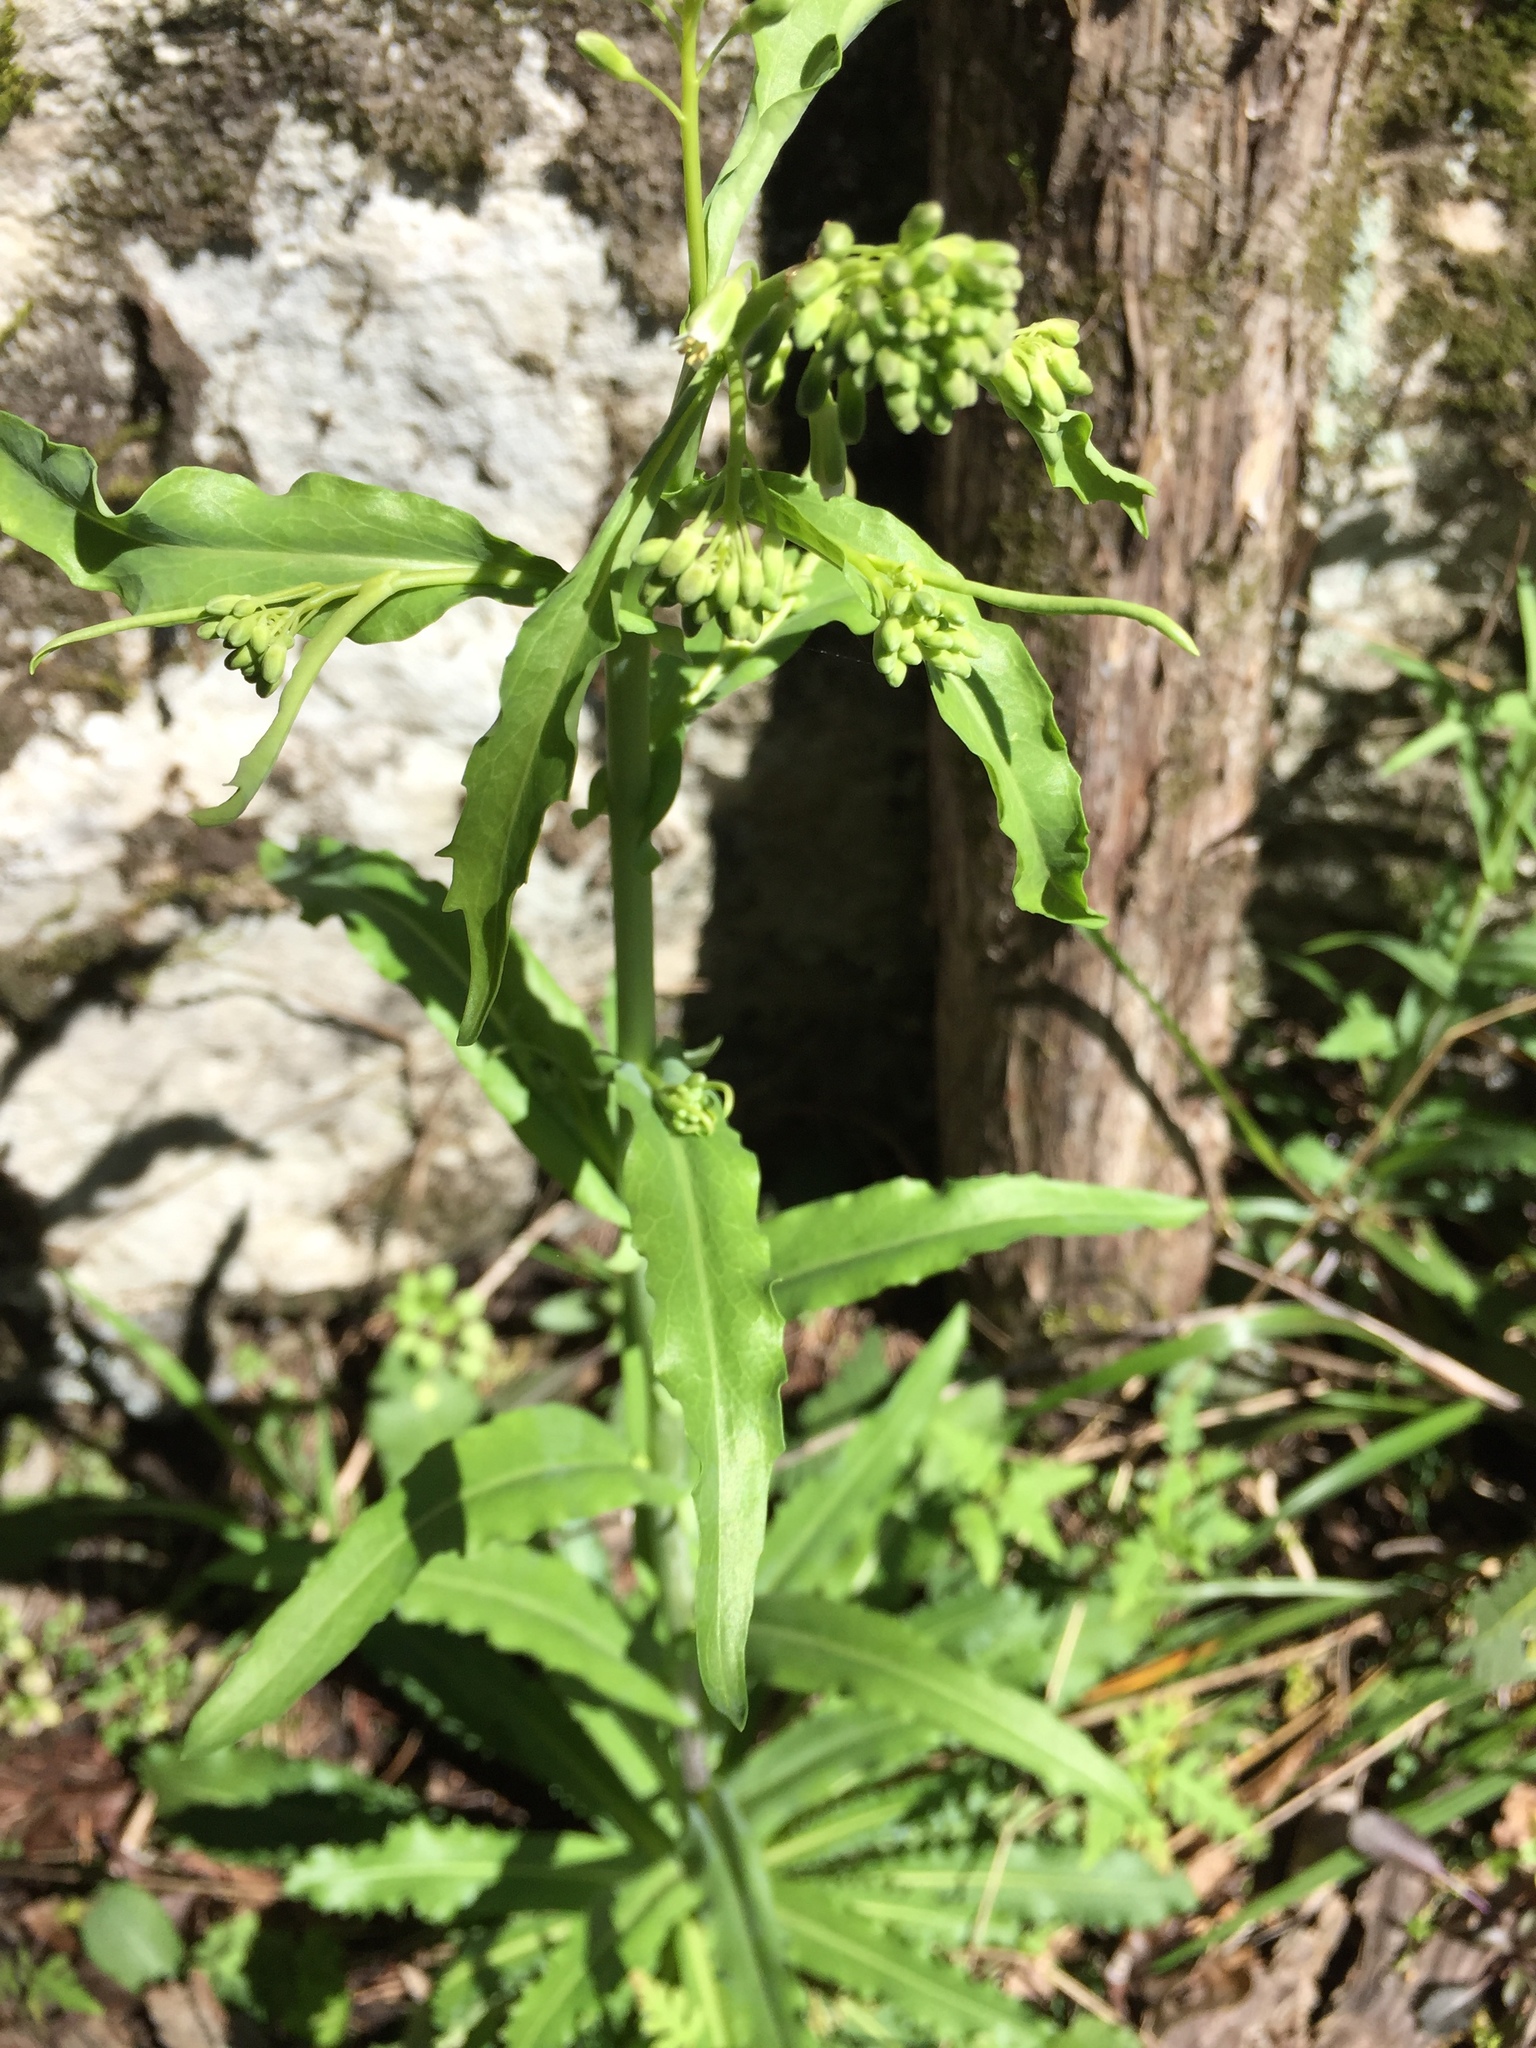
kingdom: Plantae
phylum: Tracheophyta
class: Magnoliopsida
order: Brassicales
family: Brassicaceae
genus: Borodinia
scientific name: Borodinia laevigata
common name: Smooth rockcress
